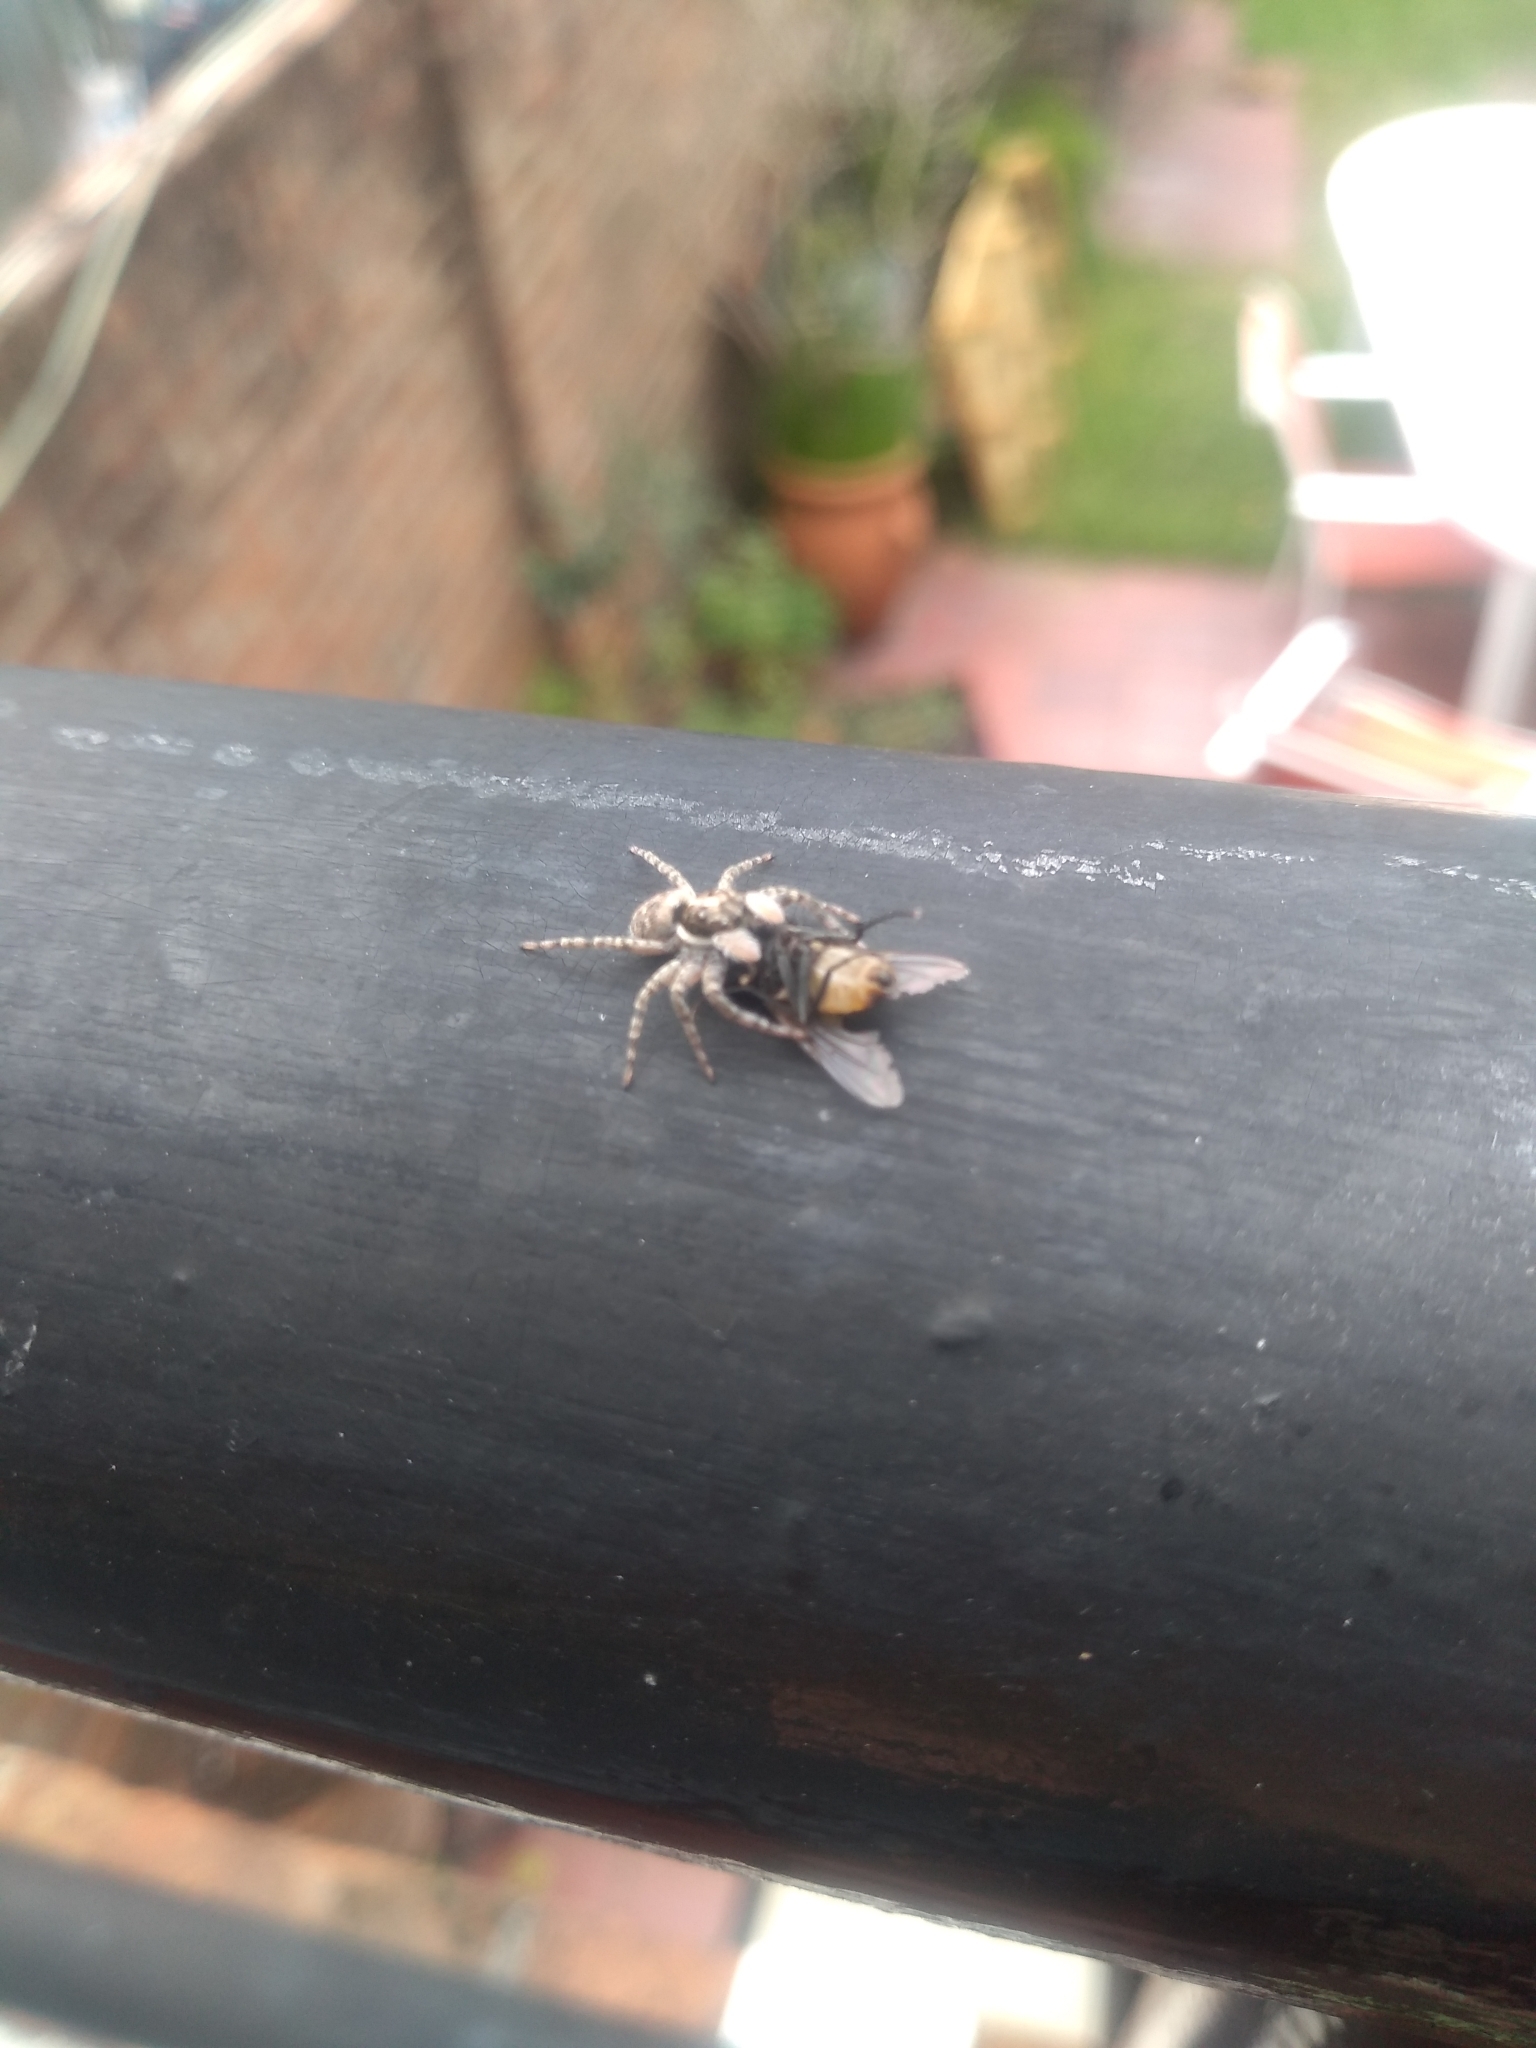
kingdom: Animalia
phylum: Arthropoda
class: Arachnida
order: Araneae
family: Salticidae
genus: Menemerus
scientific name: Menemerus semilimbatus
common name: Jumping spider
